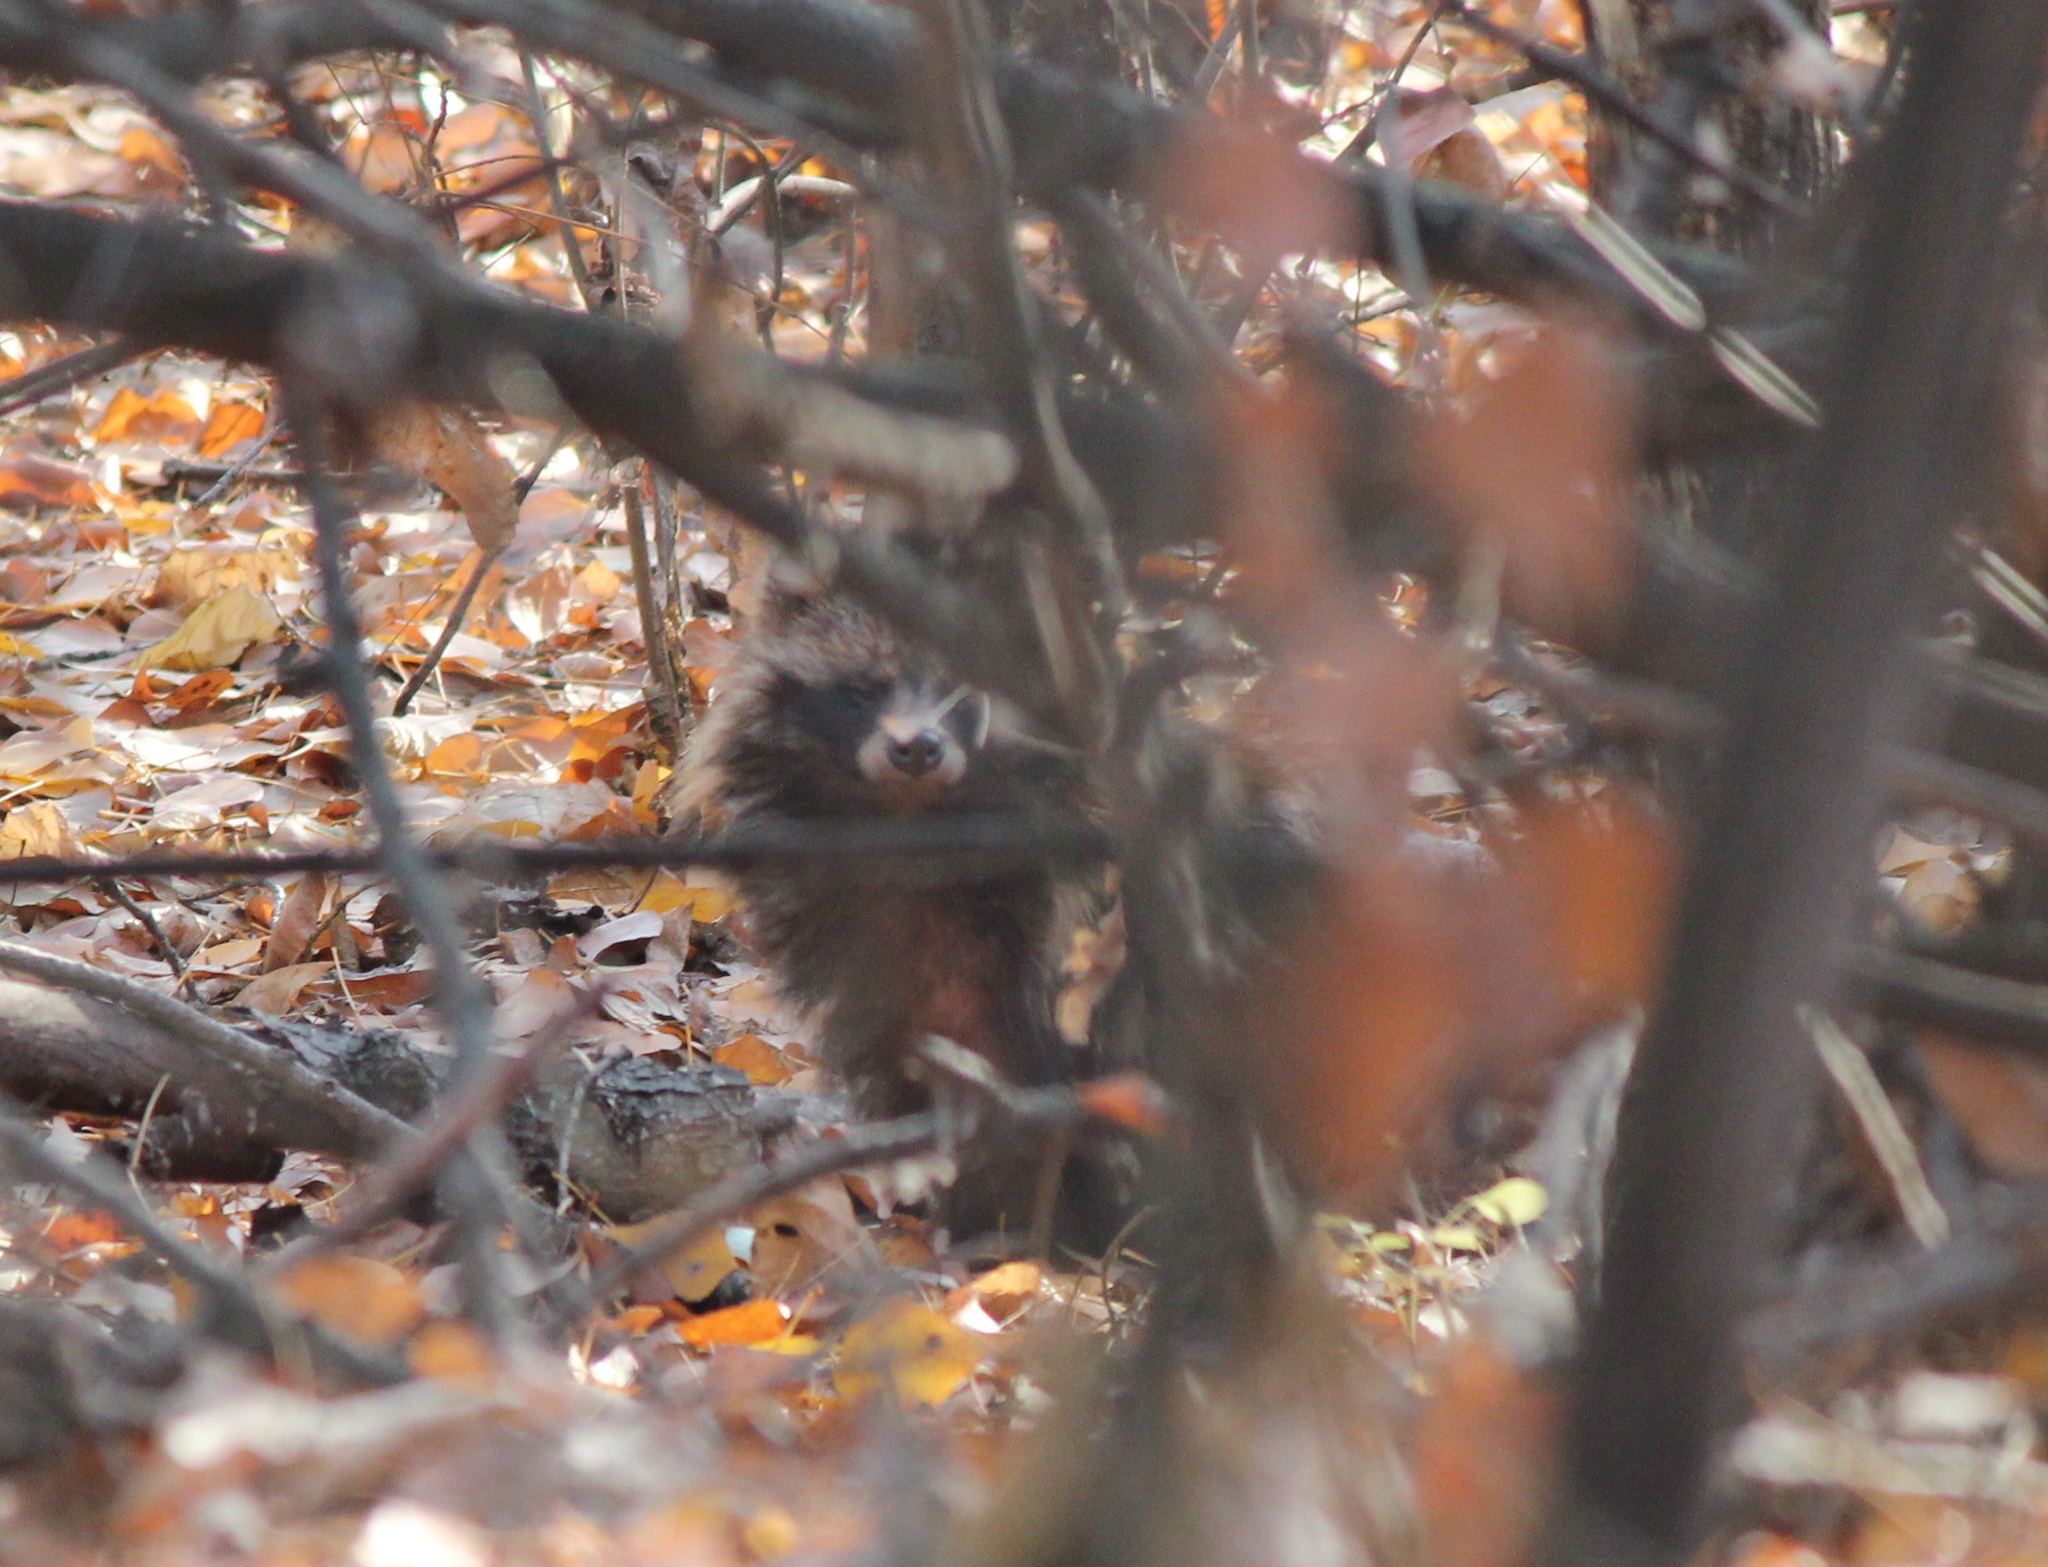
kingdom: Animalia
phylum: Chordata
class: Mammalia
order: Carnivora
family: Canidae
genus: Nyctereutes
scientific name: Nyctereutes procyonoides
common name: Raccoon dog
